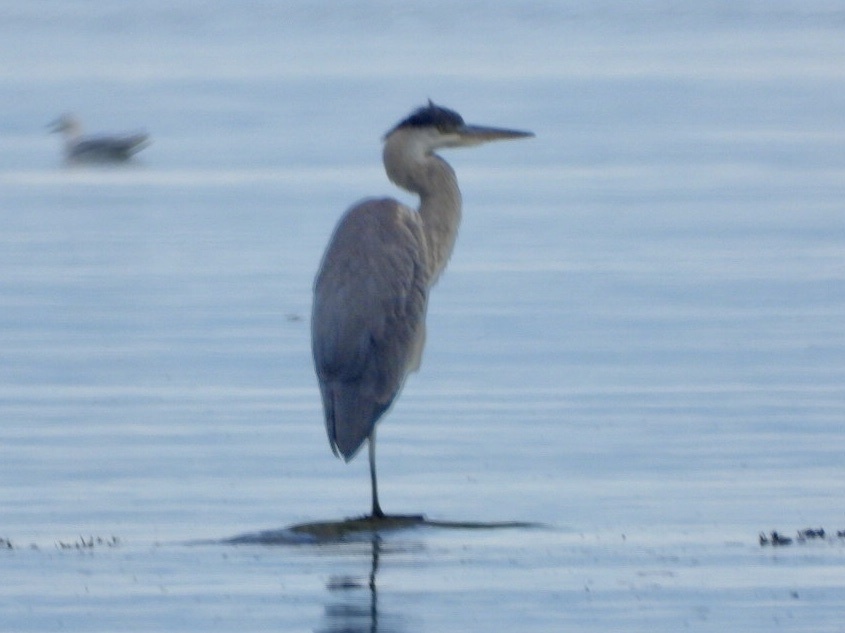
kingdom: Animalia
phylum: Chordata
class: Aves
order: Pelecaniformes
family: Ardeidae
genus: Ardea
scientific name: Ardea herodias
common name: Great blue heron
